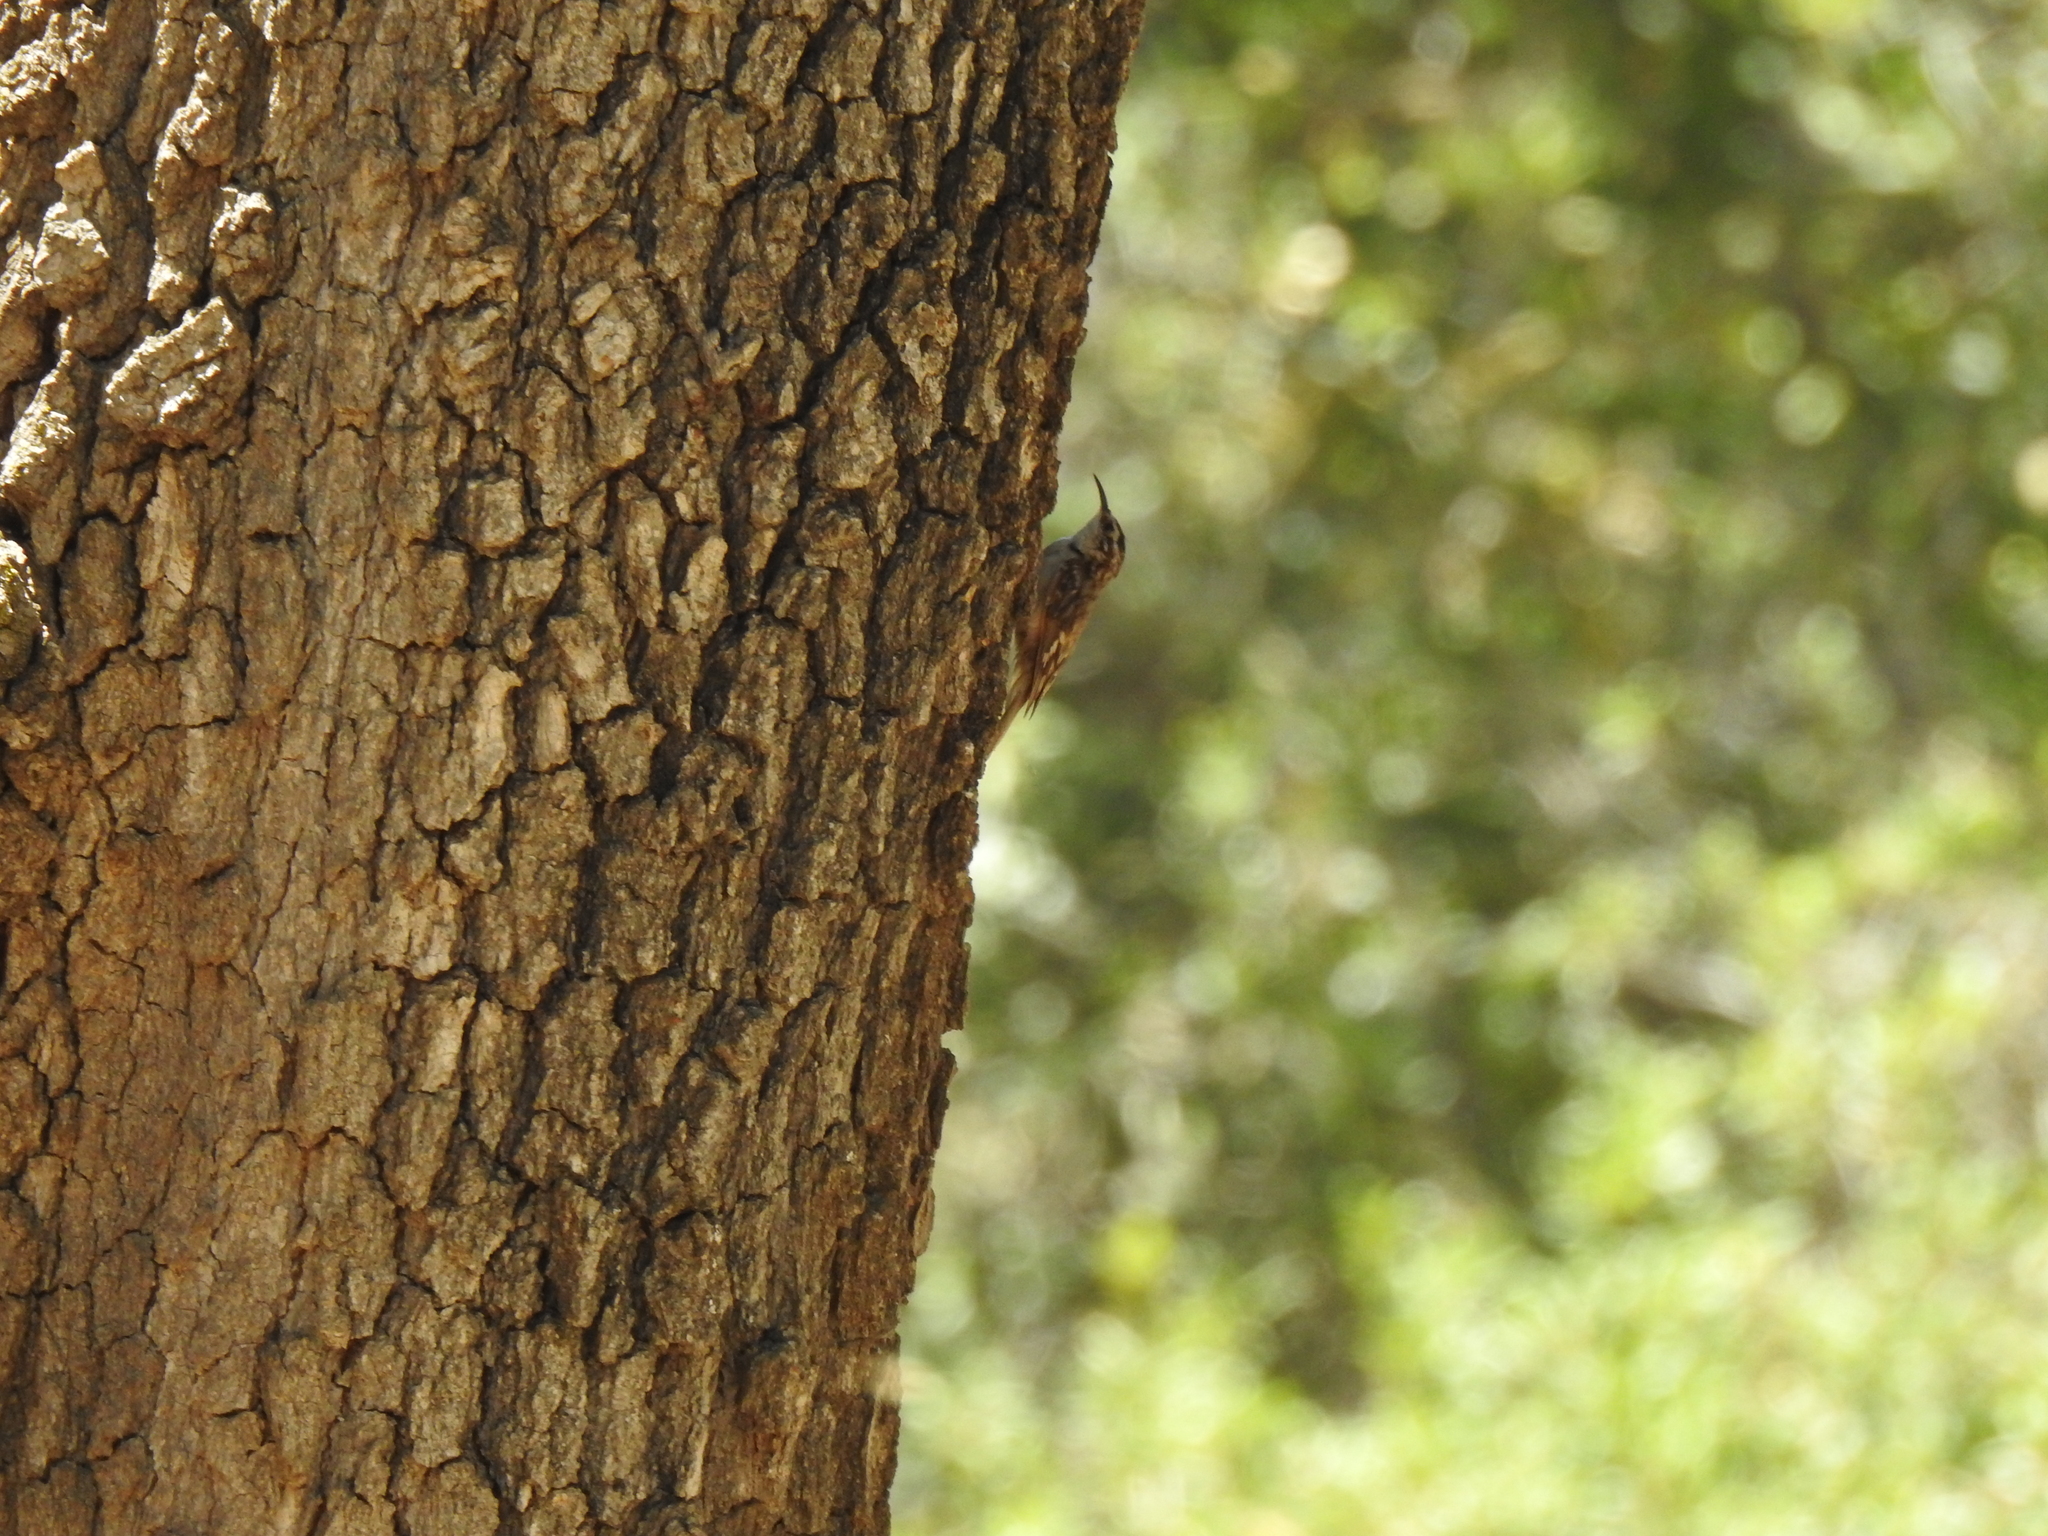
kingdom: Animalia
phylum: Chordata
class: Aves
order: Passeriformes
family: Certhiidae
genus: Certhia
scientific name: Certhia americana
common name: Brown creeper
